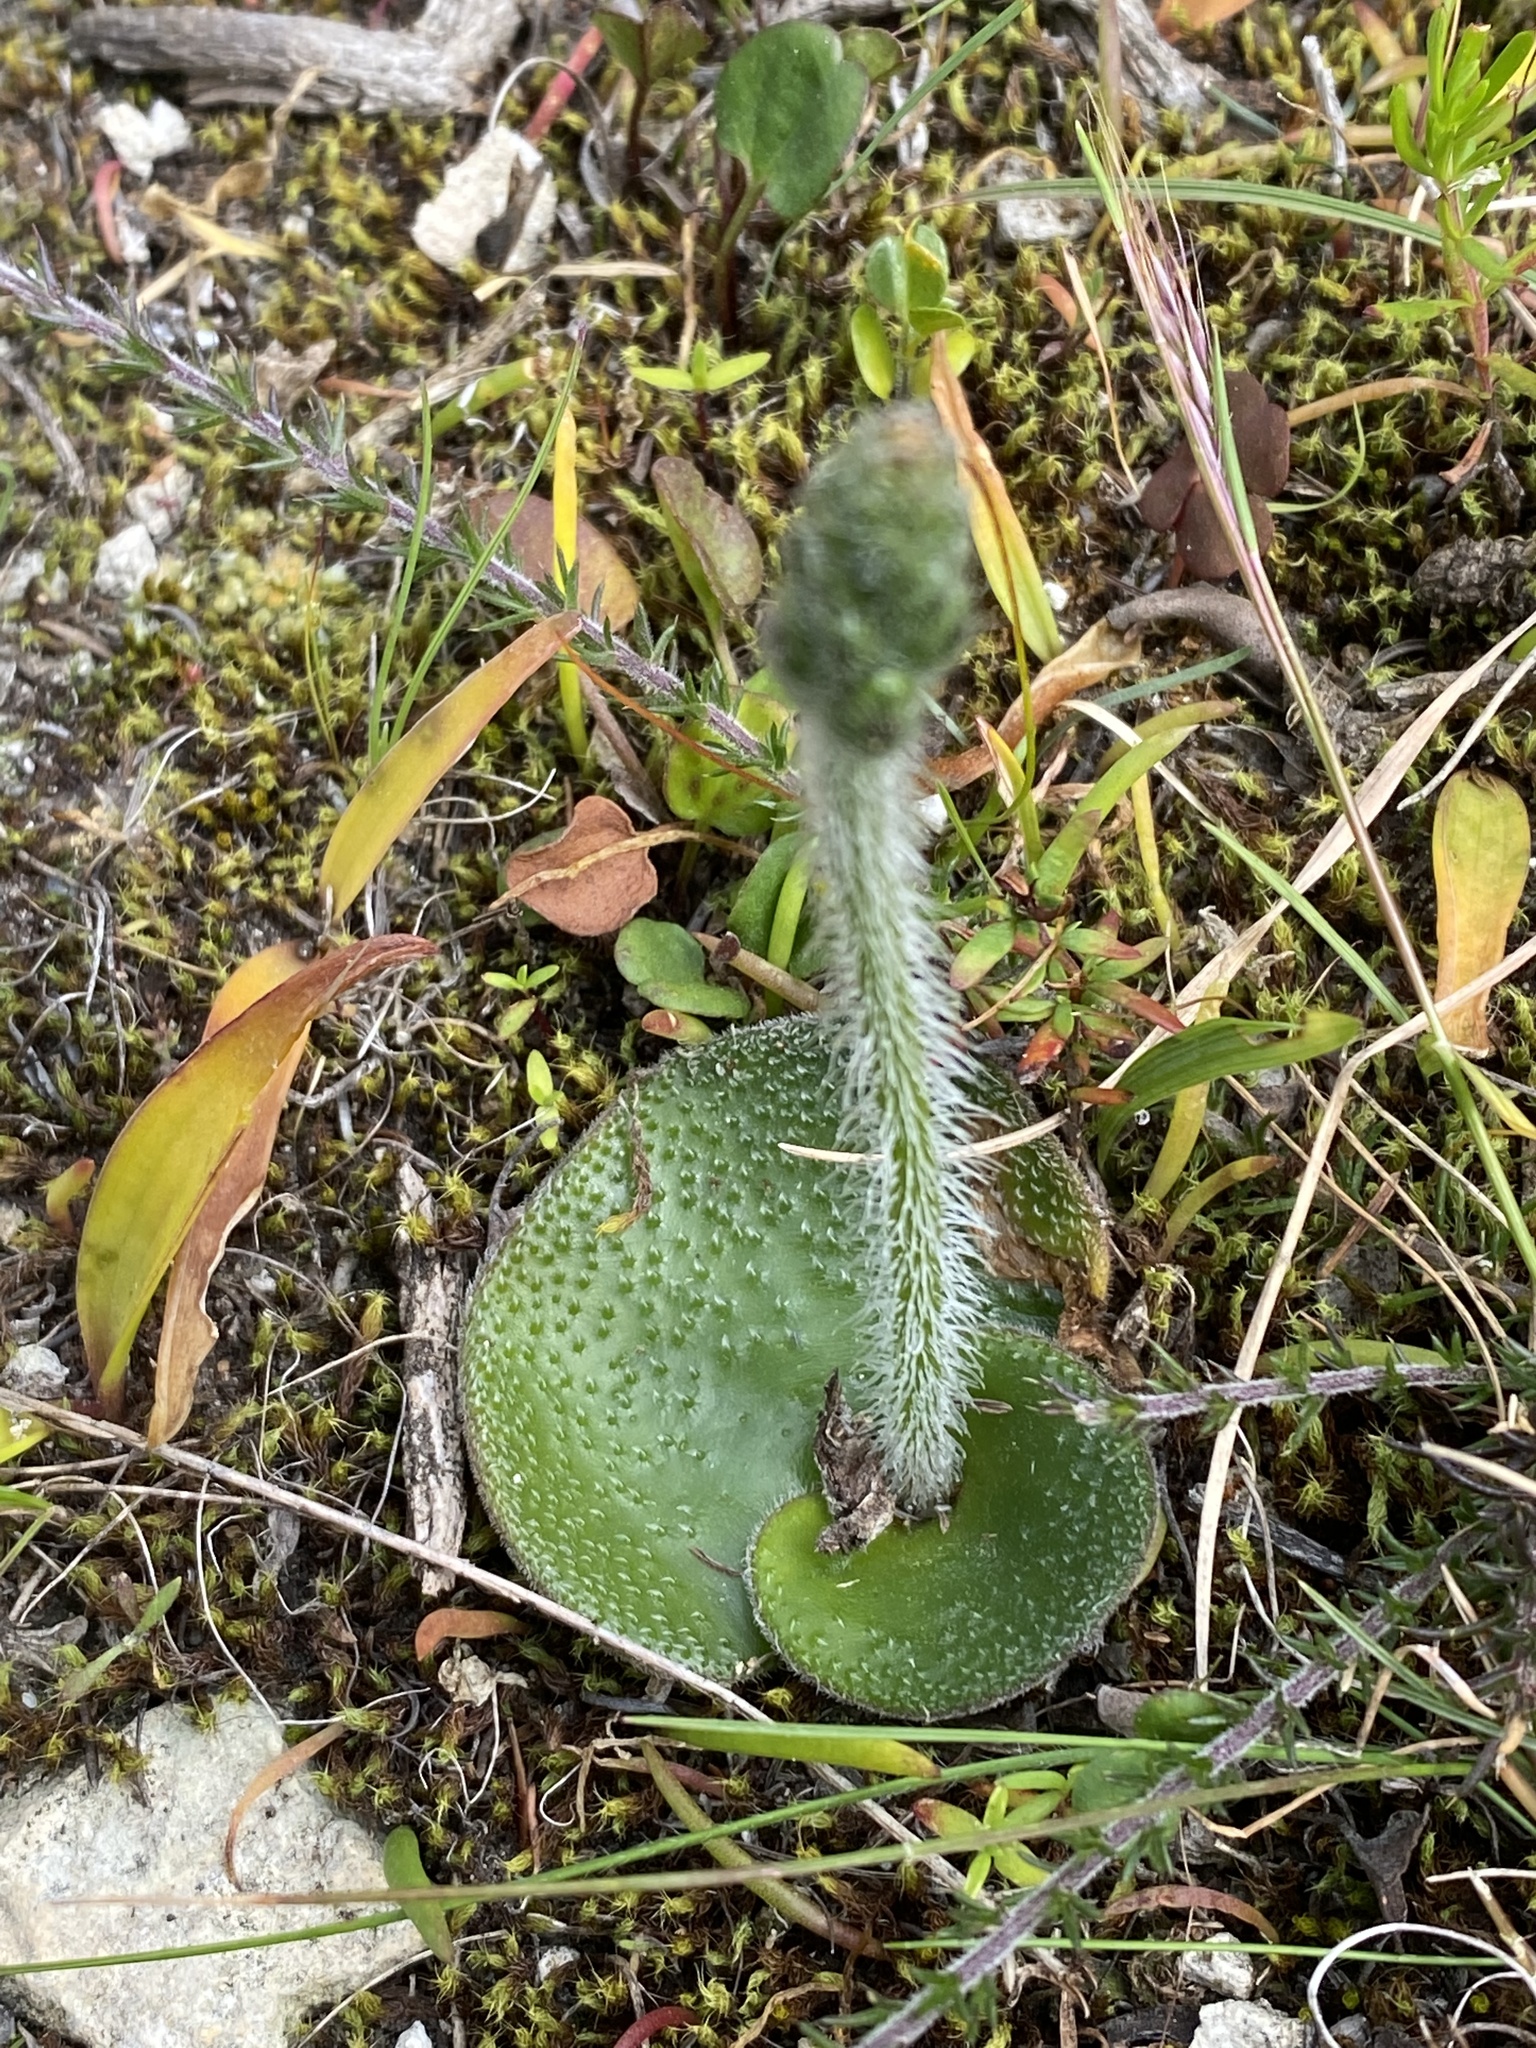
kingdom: Plantae
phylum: Tracheophyta
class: Liliopsida
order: Asparagales
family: Orchidaceae
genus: Holothrix
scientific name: Holothrix cernua
